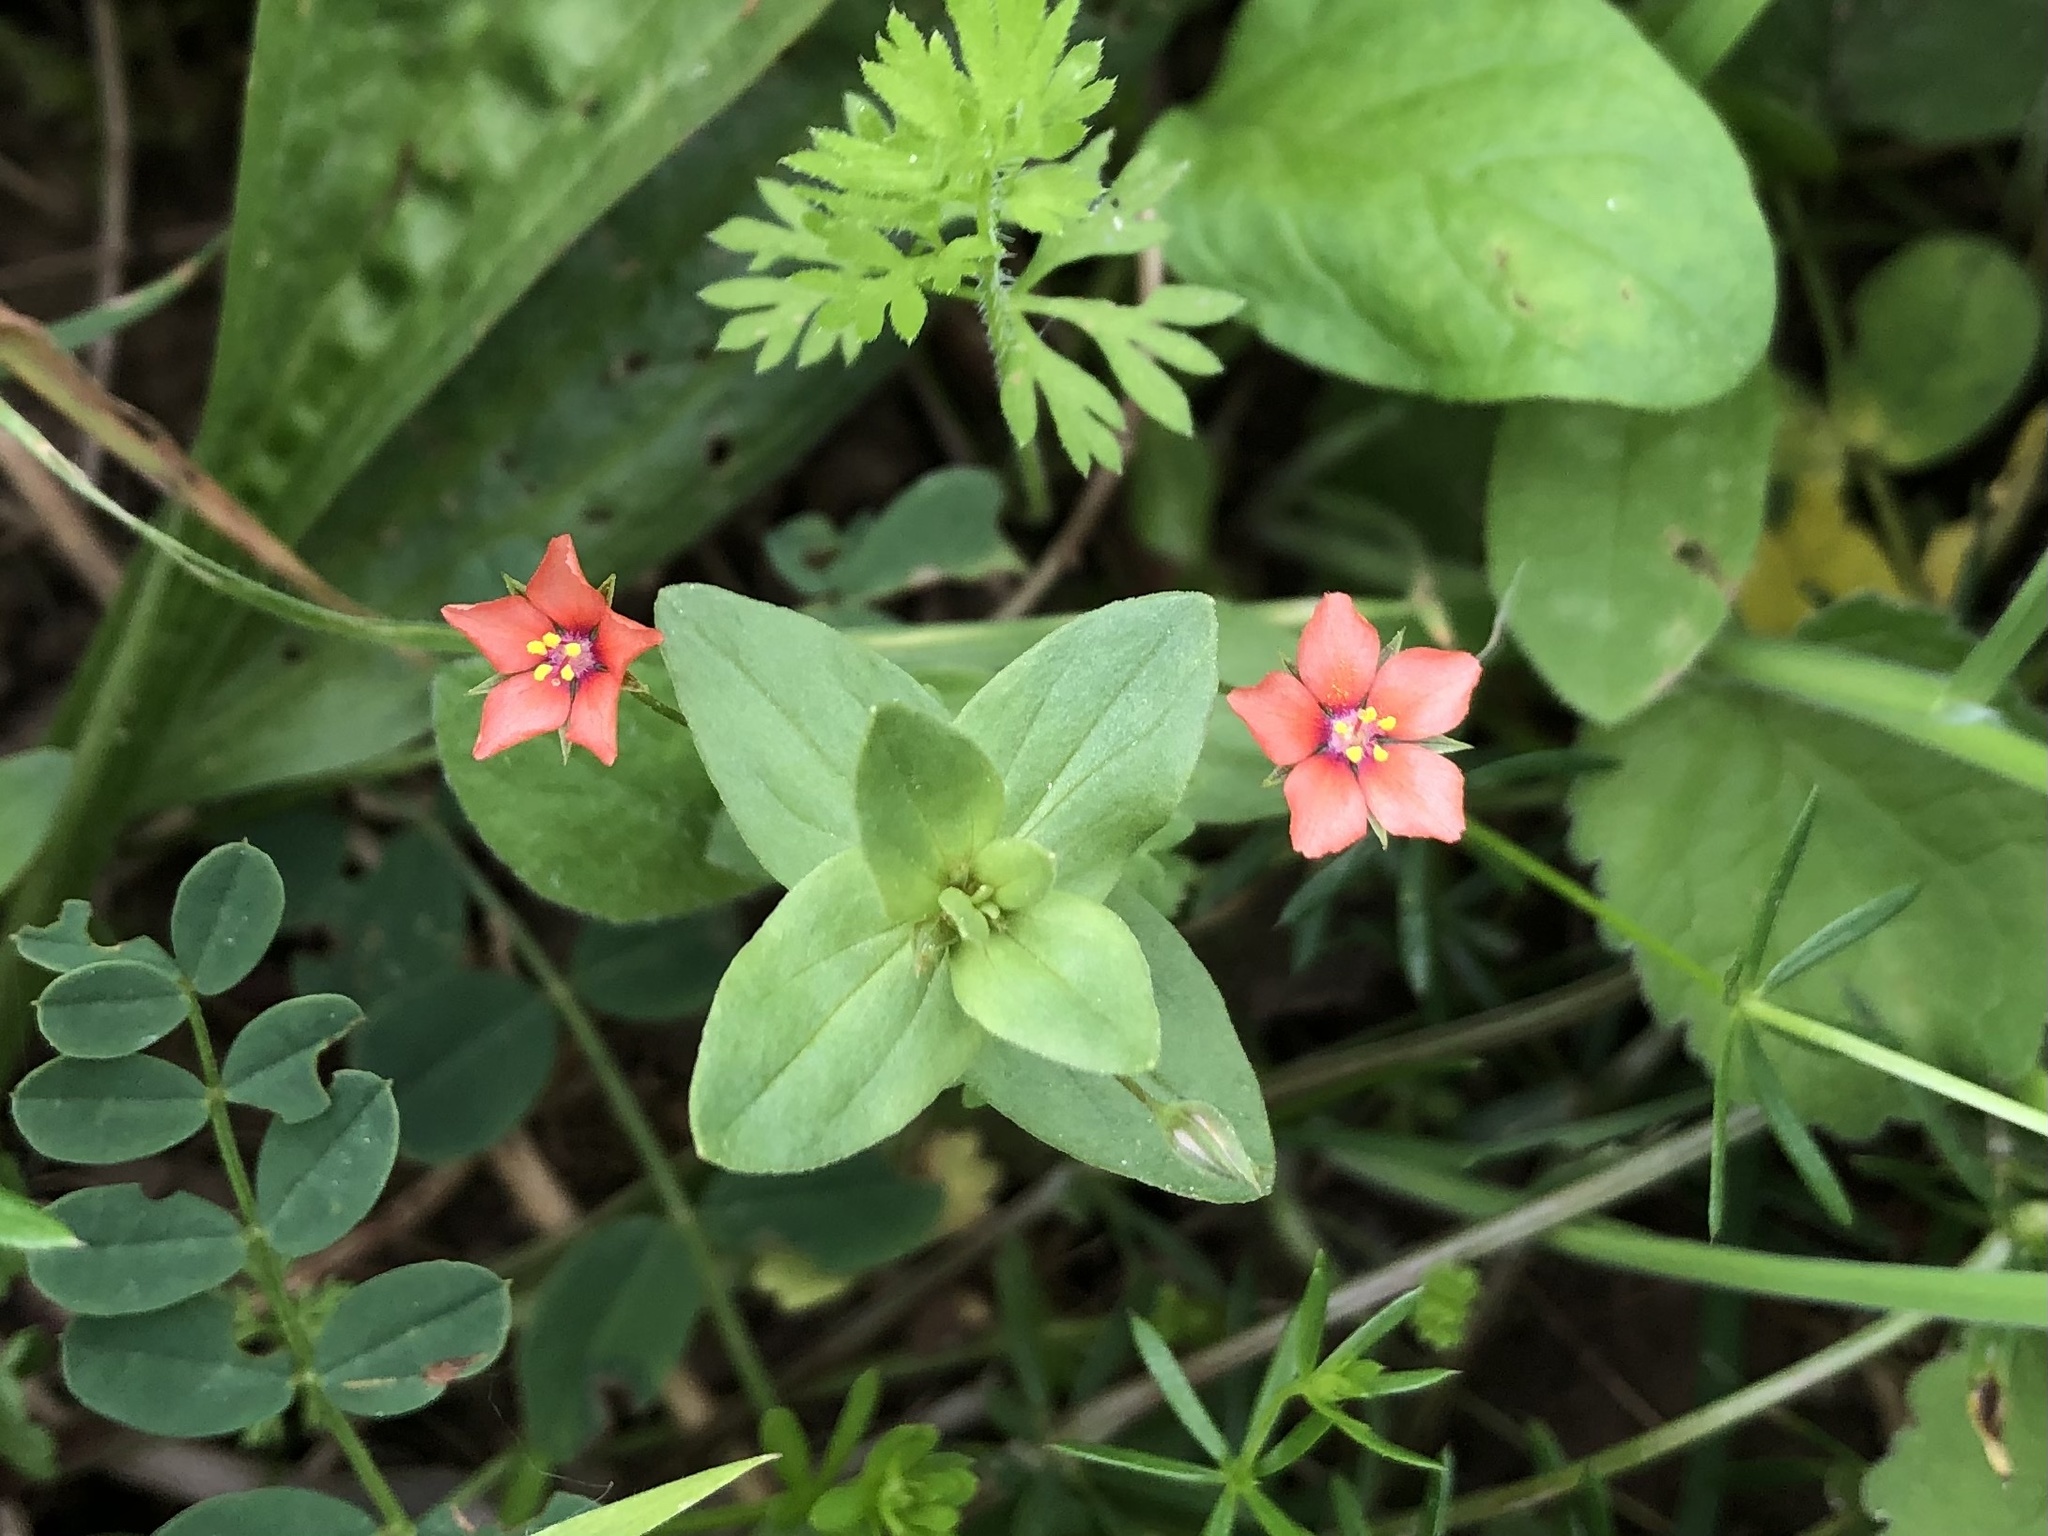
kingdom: Plantae
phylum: Tracheophyta
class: Magnoliopsida
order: Ericales
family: Primulaceae
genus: Lysimachia
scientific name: Lysimachia arvensis
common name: Scarlet pimpernel
